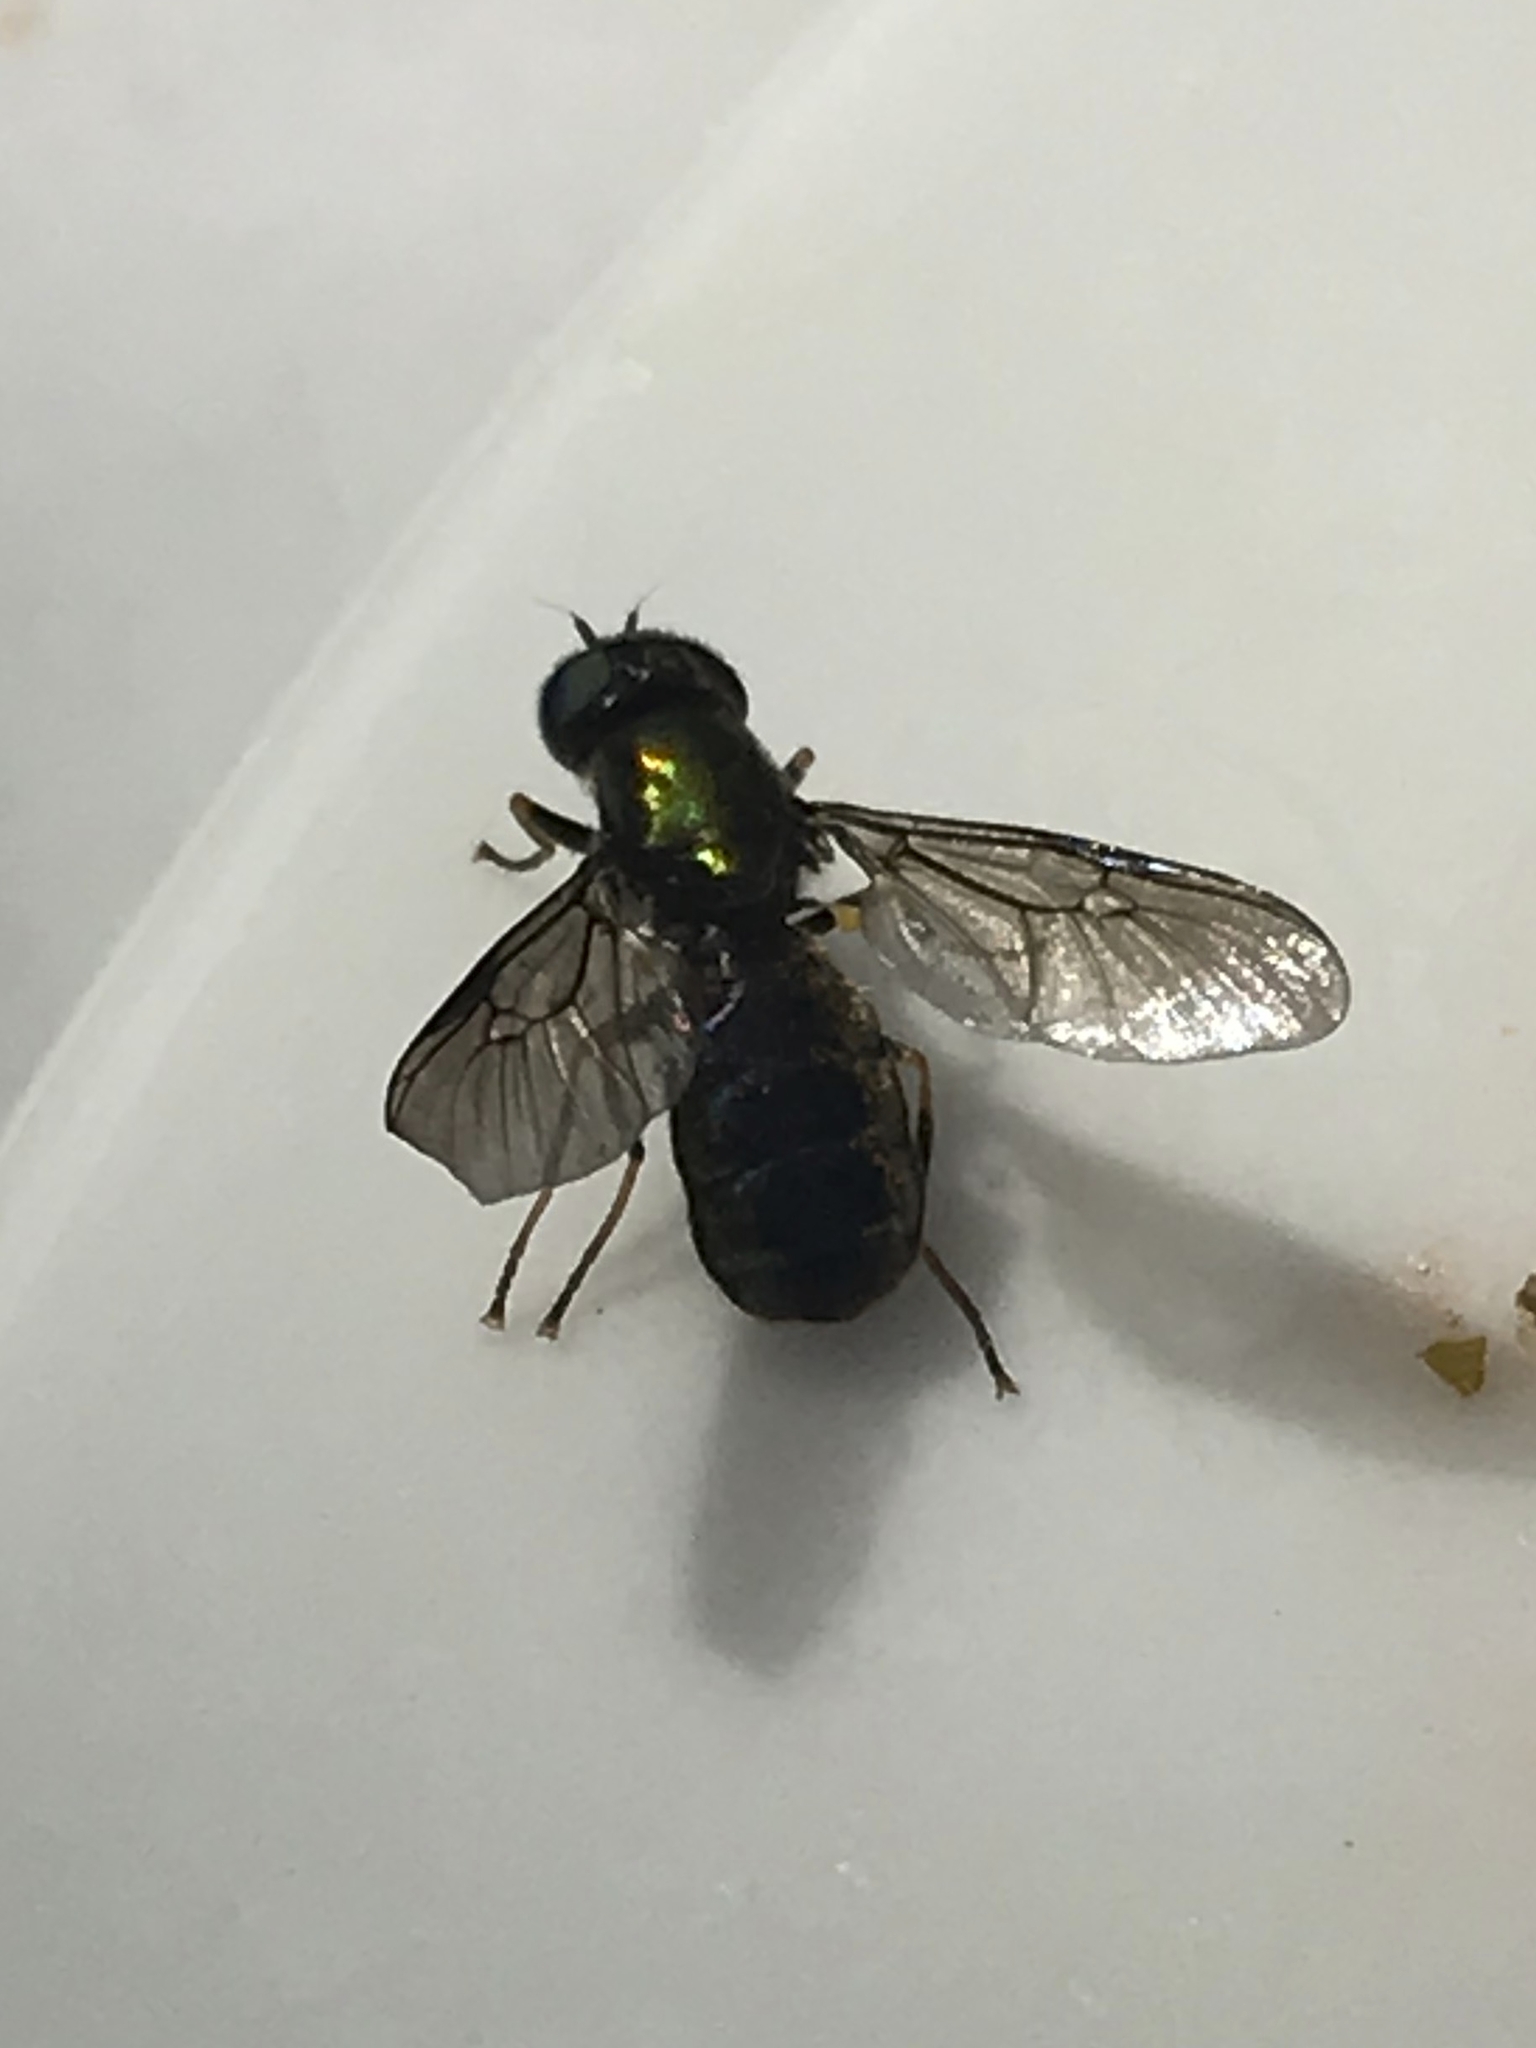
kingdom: Animalia
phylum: Arthropoda
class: Insecta
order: Diptera
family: Stratiomyidae
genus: Chloromyia
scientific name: Chloromyia formosa
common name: Soldier fly
